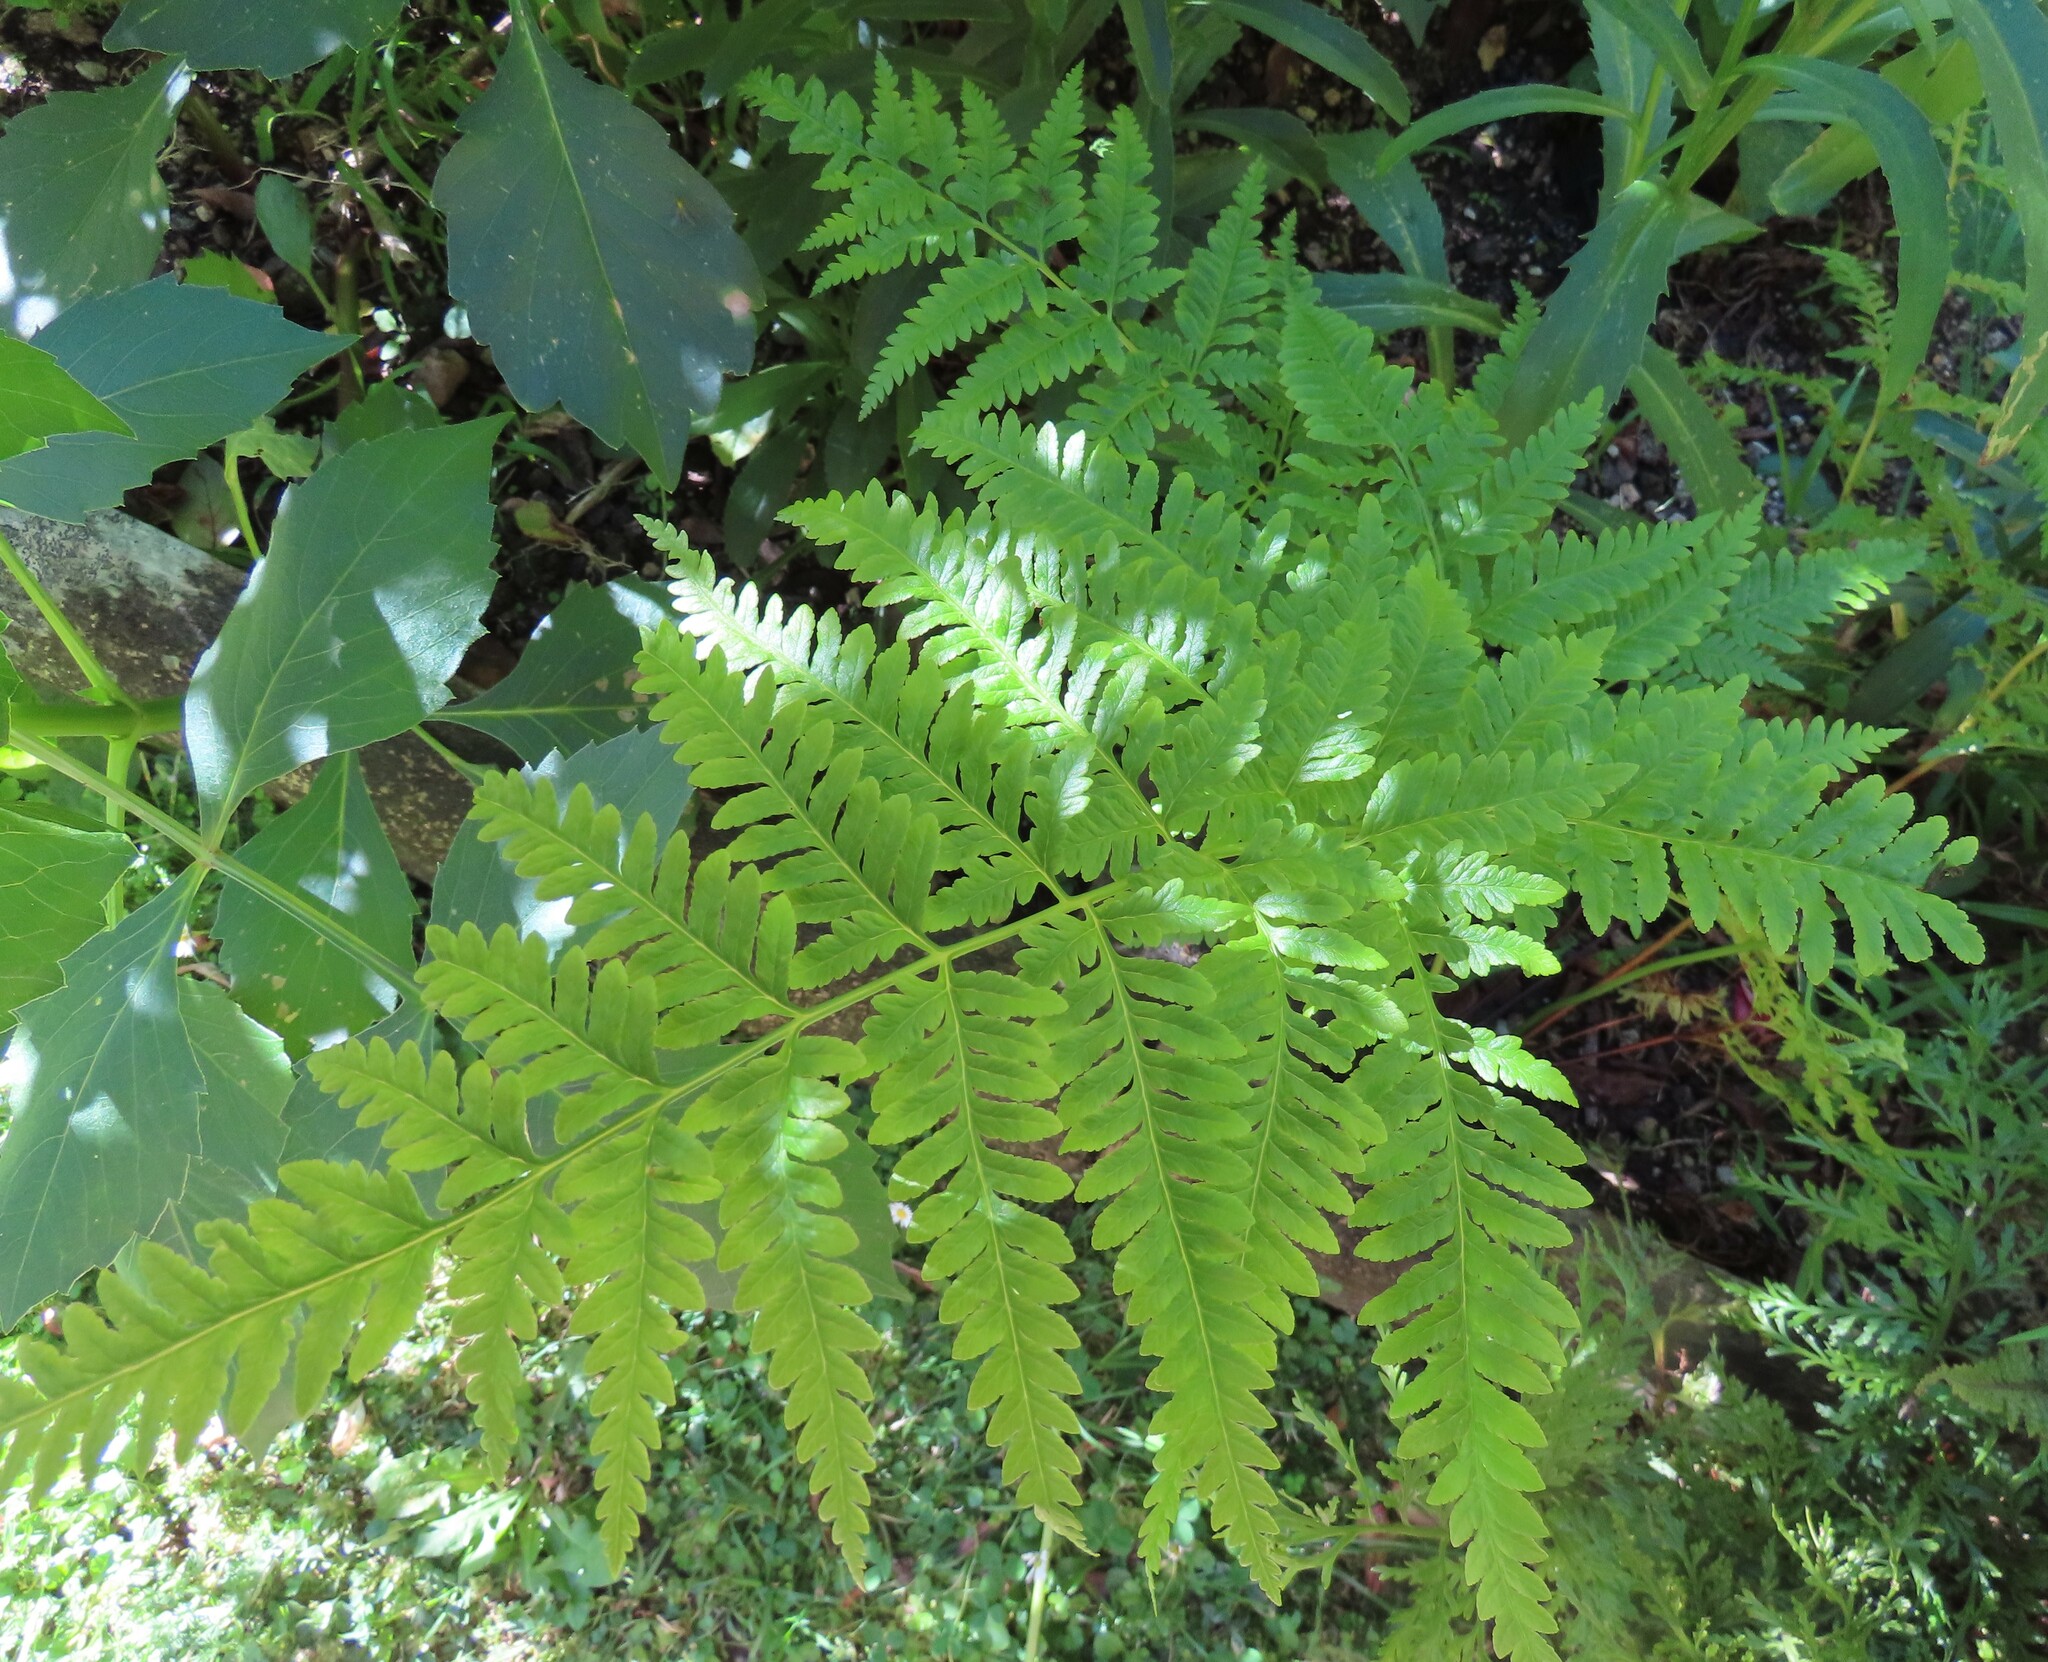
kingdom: Plantae
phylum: Tracheophyta
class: Polypodiopsida
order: Polypodiales
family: Pteridaceae
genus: Pteris
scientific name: Pteris tremula
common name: Australian brake
